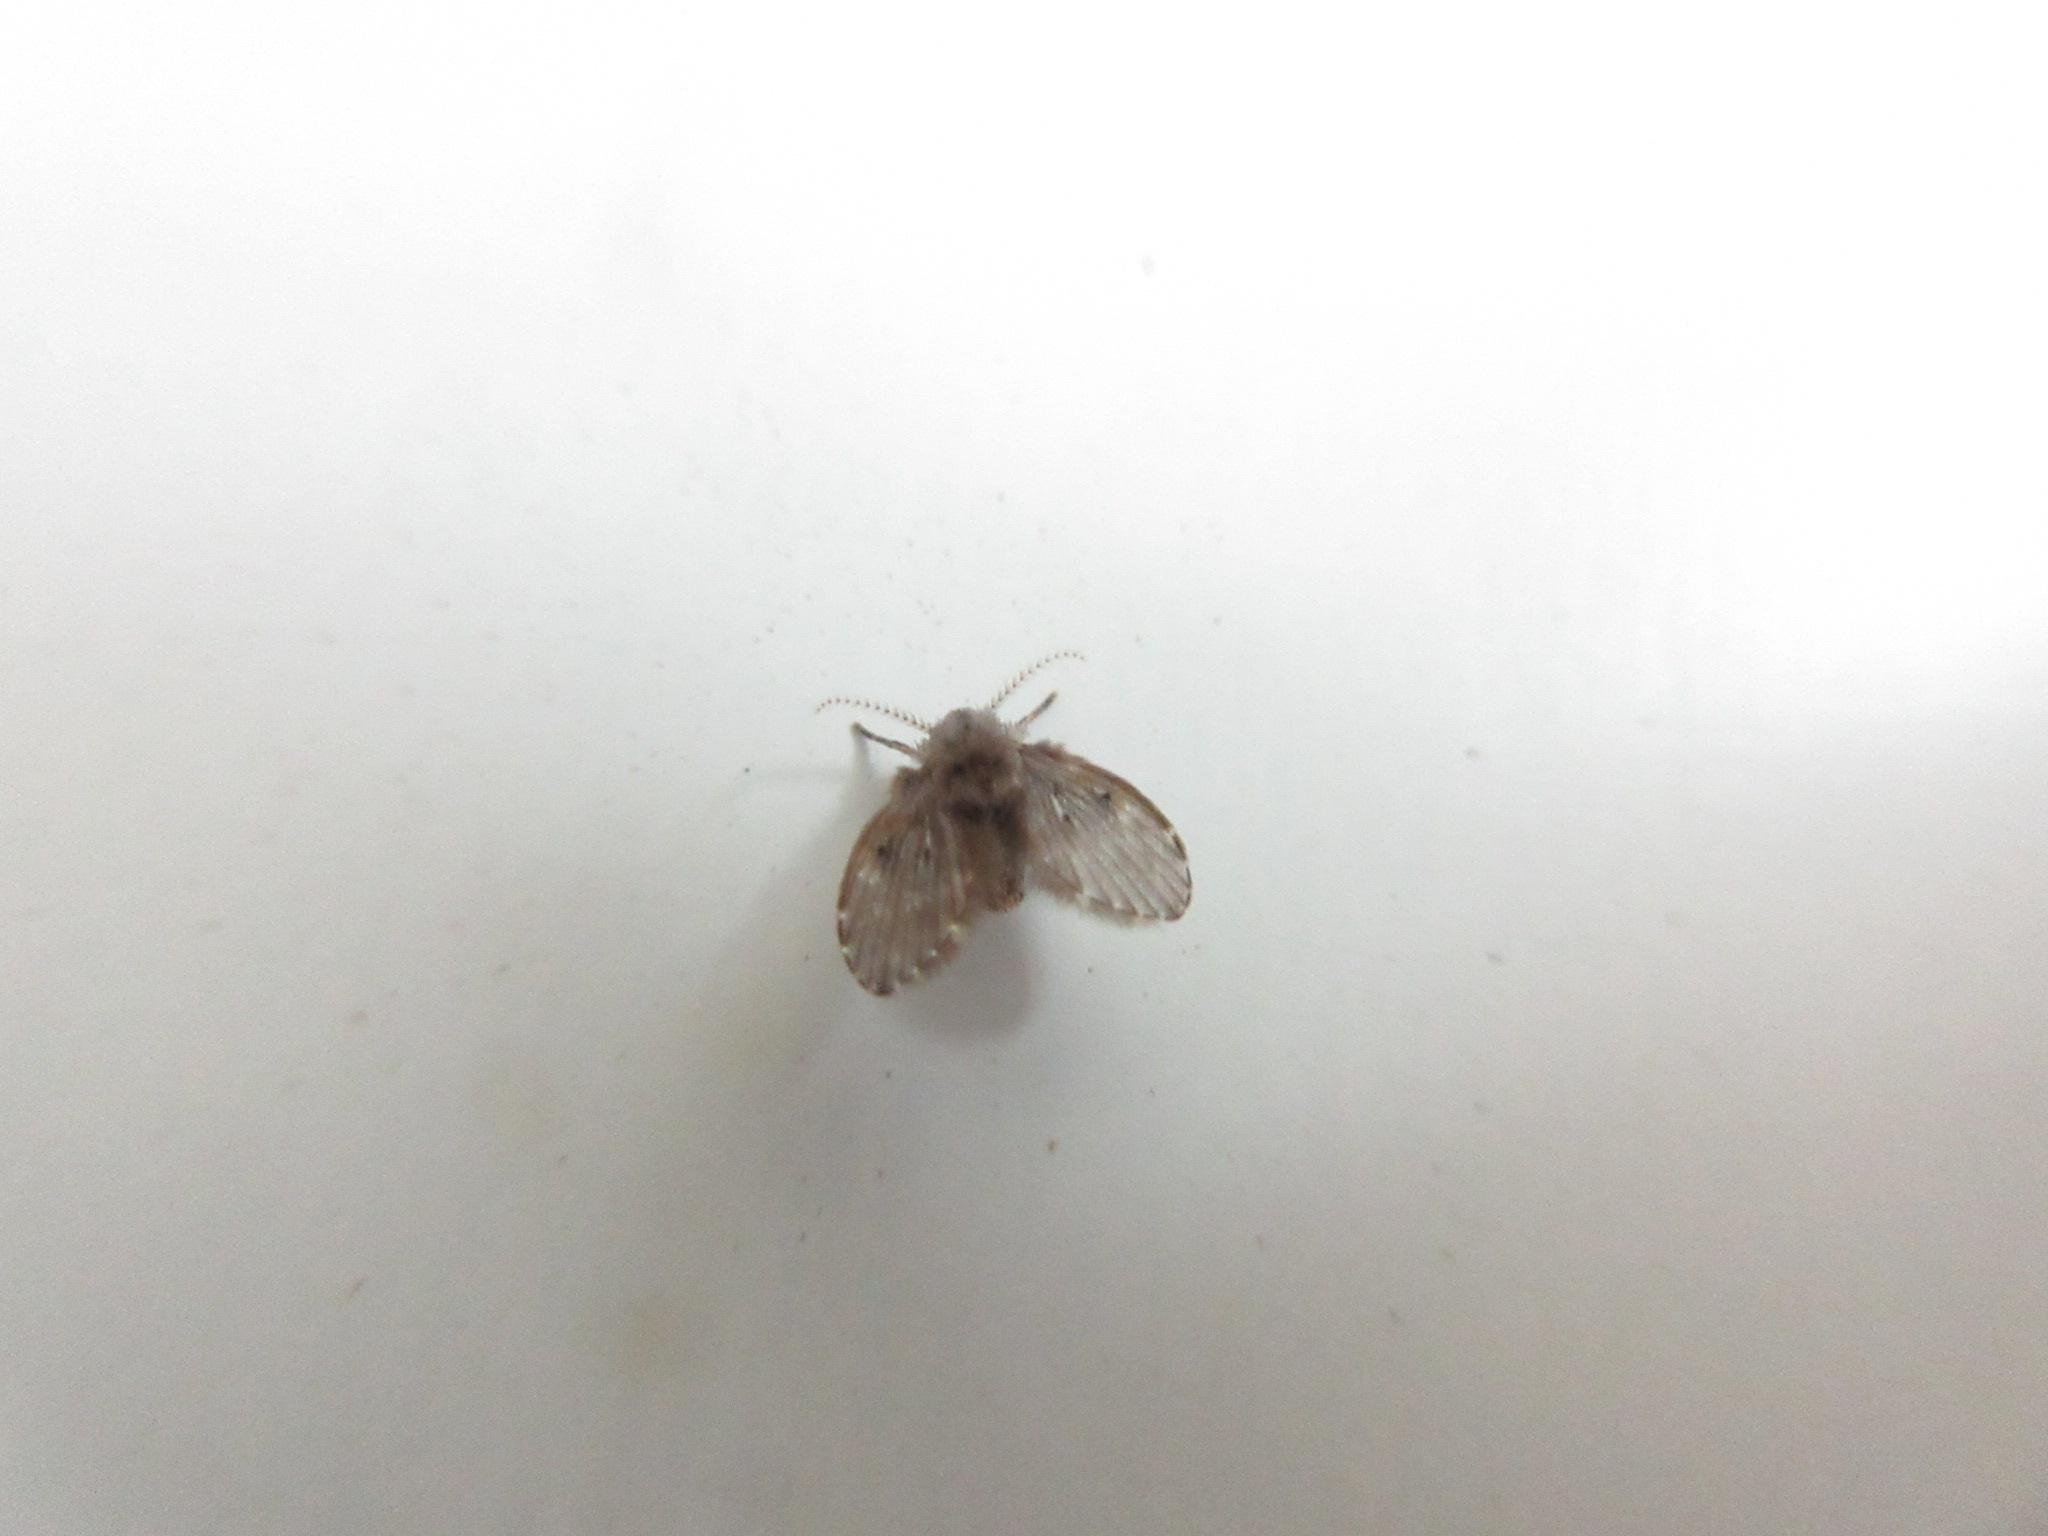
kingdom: Animalia
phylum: Arthropoda
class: Insecta
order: Diptera
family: Psychodidae
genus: Clogmia
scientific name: Clogmia albipunctatus
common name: White-spotted moth fly
